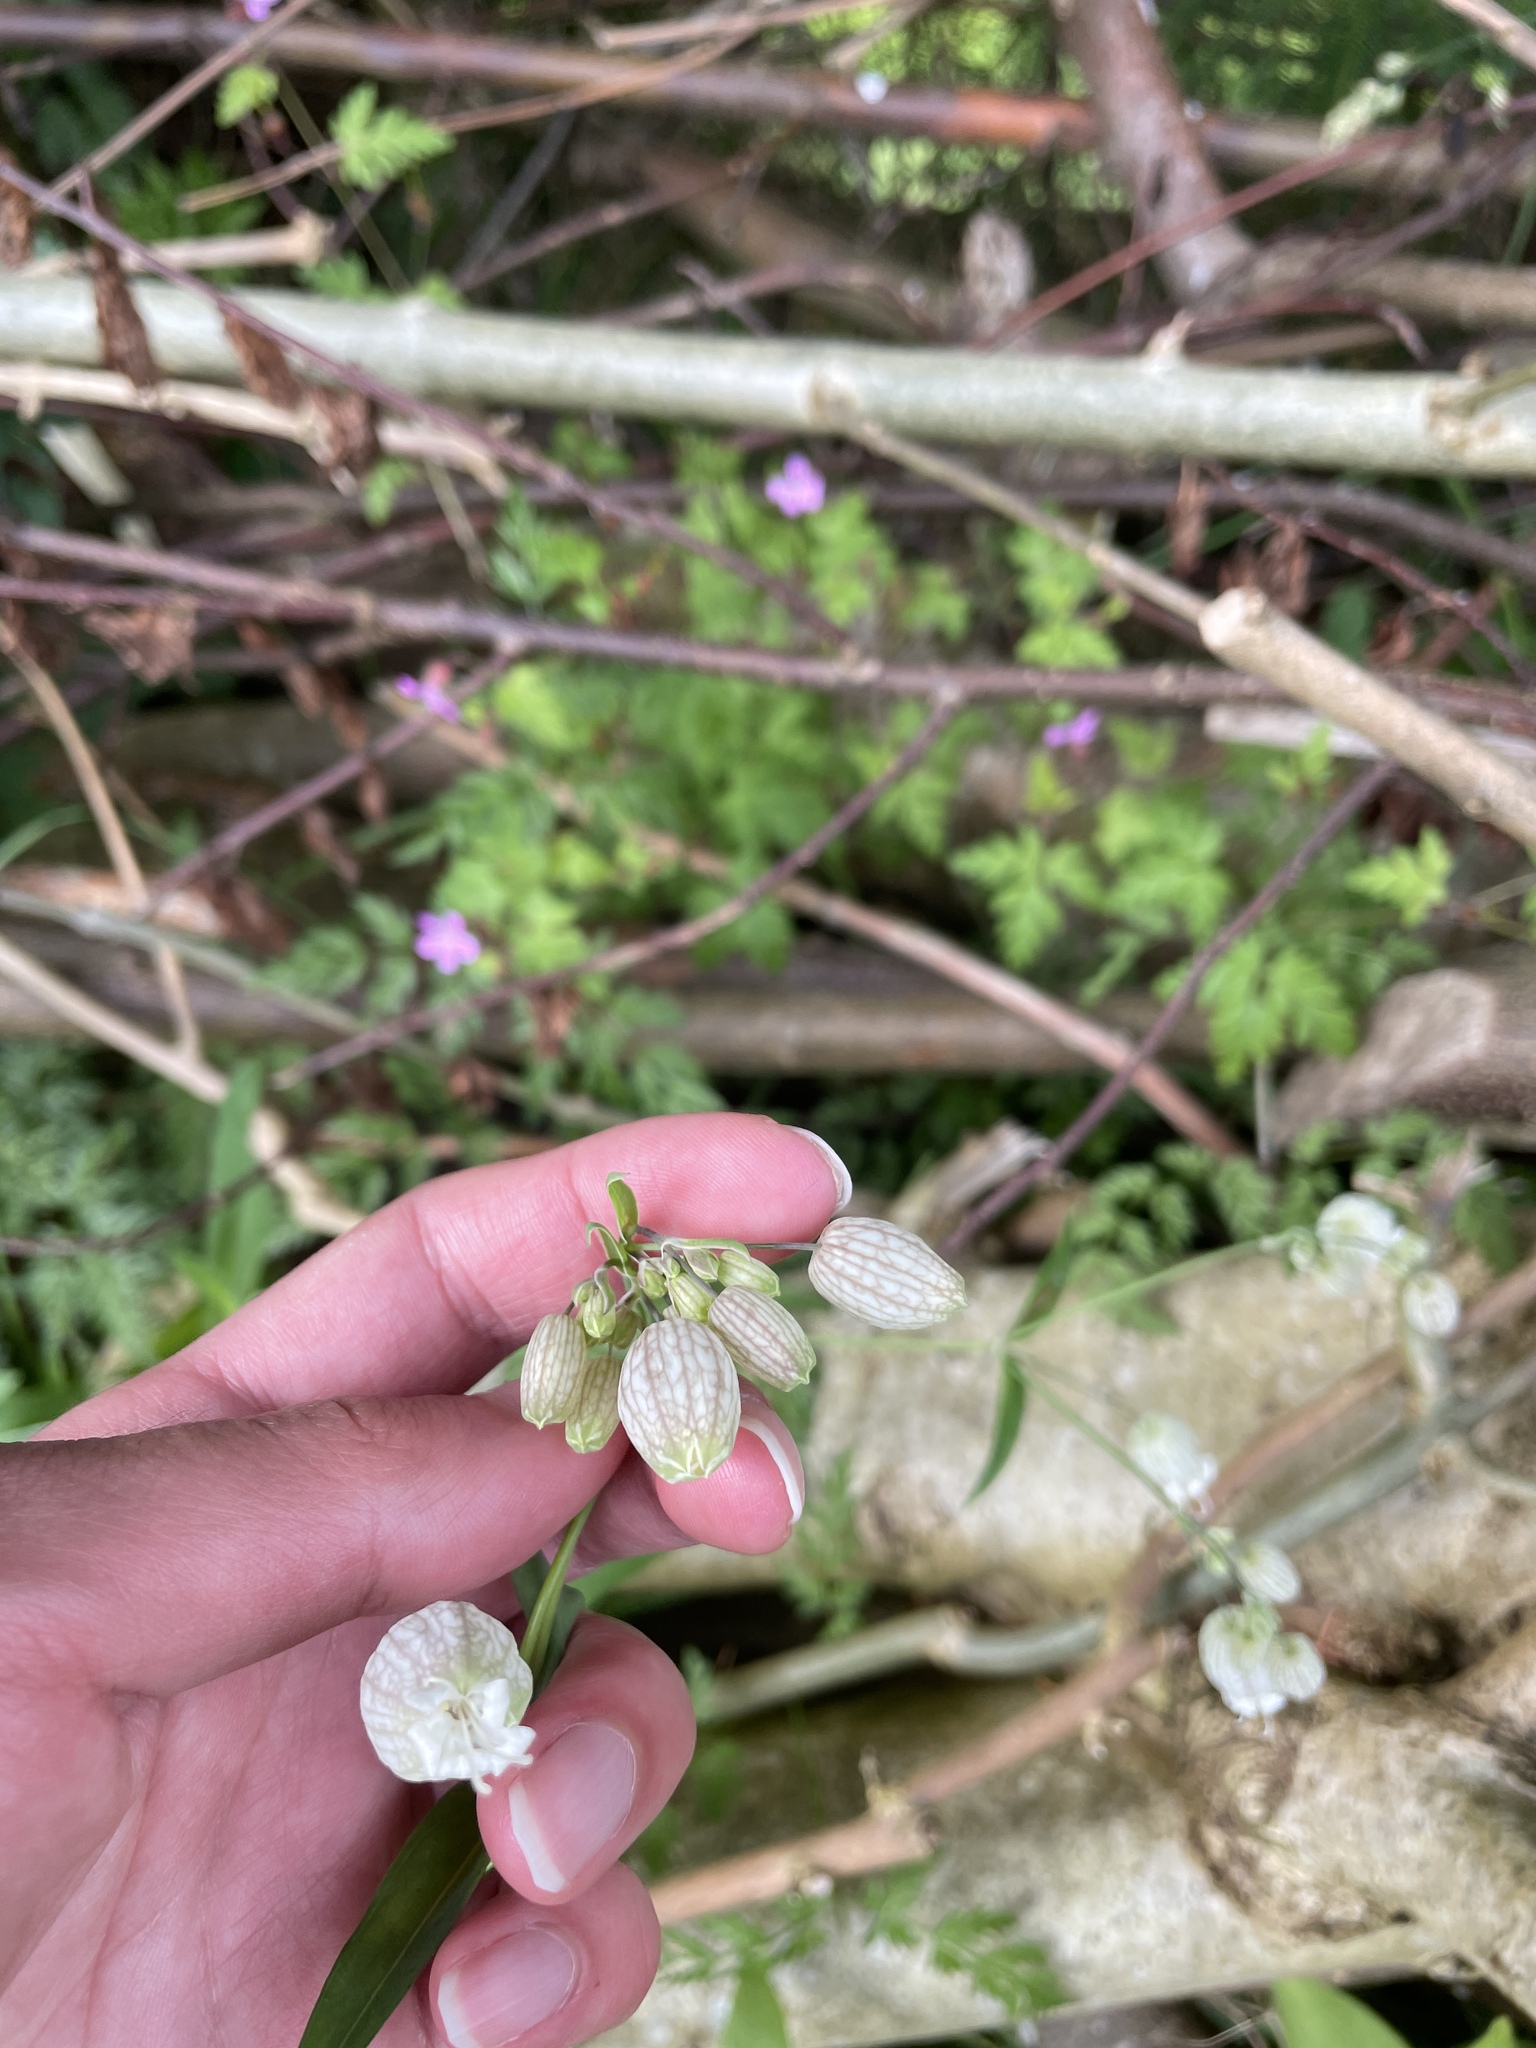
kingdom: Plantae
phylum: Tracheophyta
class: Magnoliopsida
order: Caryophyllales
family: Caryophyllaceae
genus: Silene
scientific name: Silene vulgaris
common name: Bladder campion
